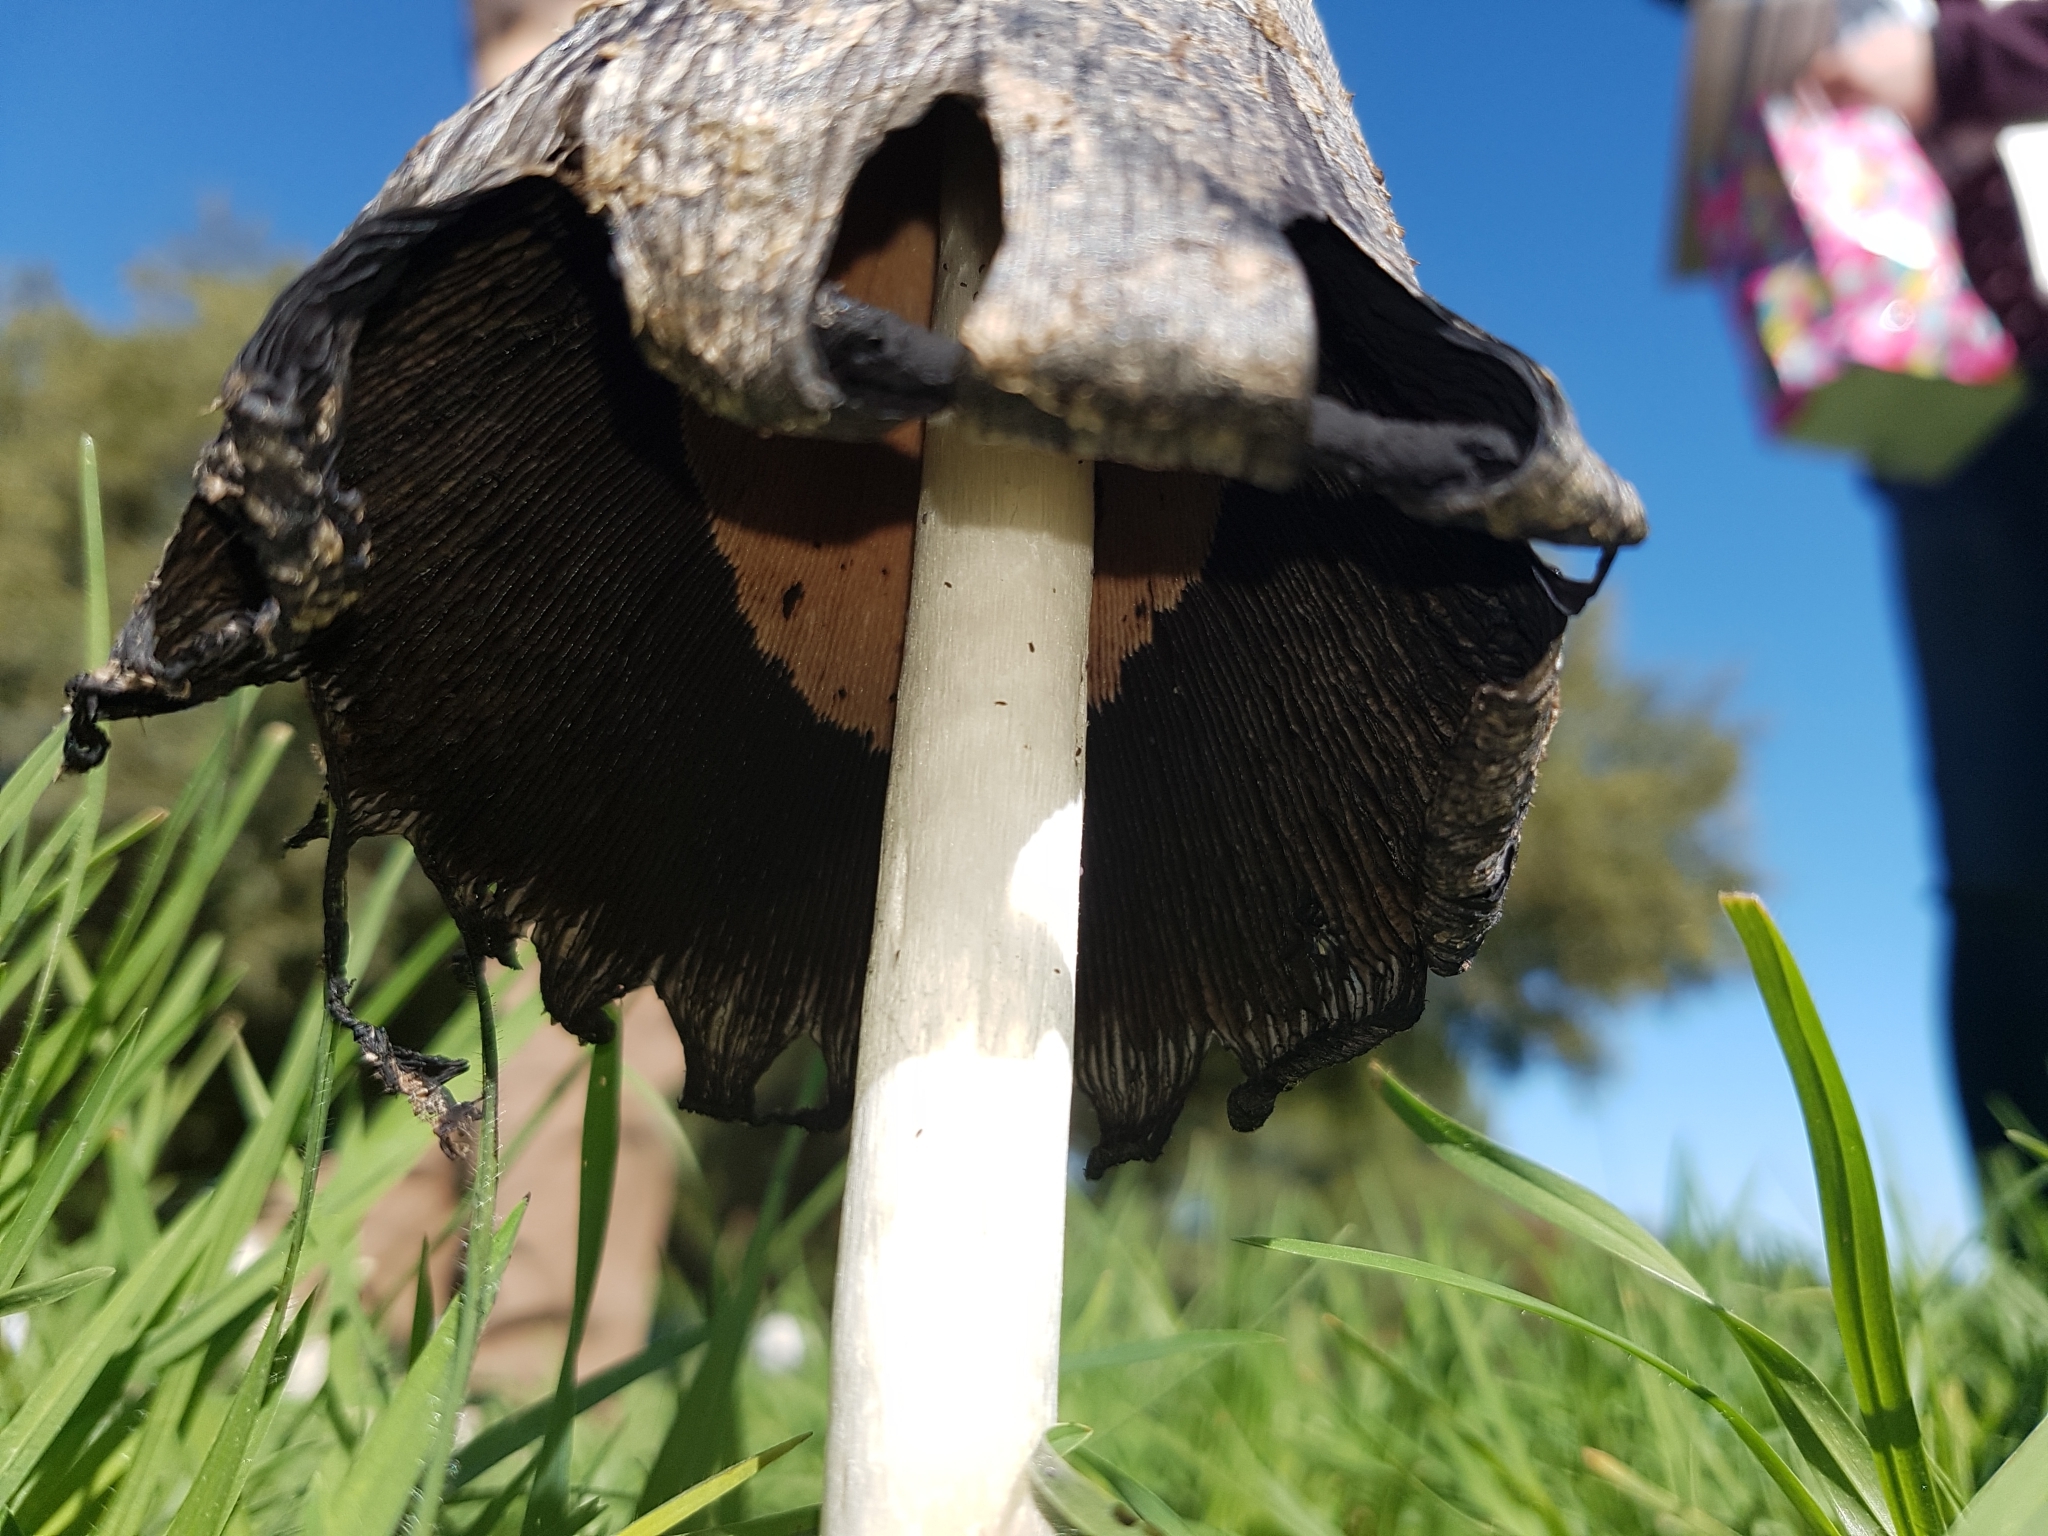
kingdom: Fungi
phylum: Basidiomycota
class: Agaricomycetes
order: Agaricales
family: Agaricaceae
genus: Coprinus
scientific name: Coprinus comatus
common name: Lawyer's wig
